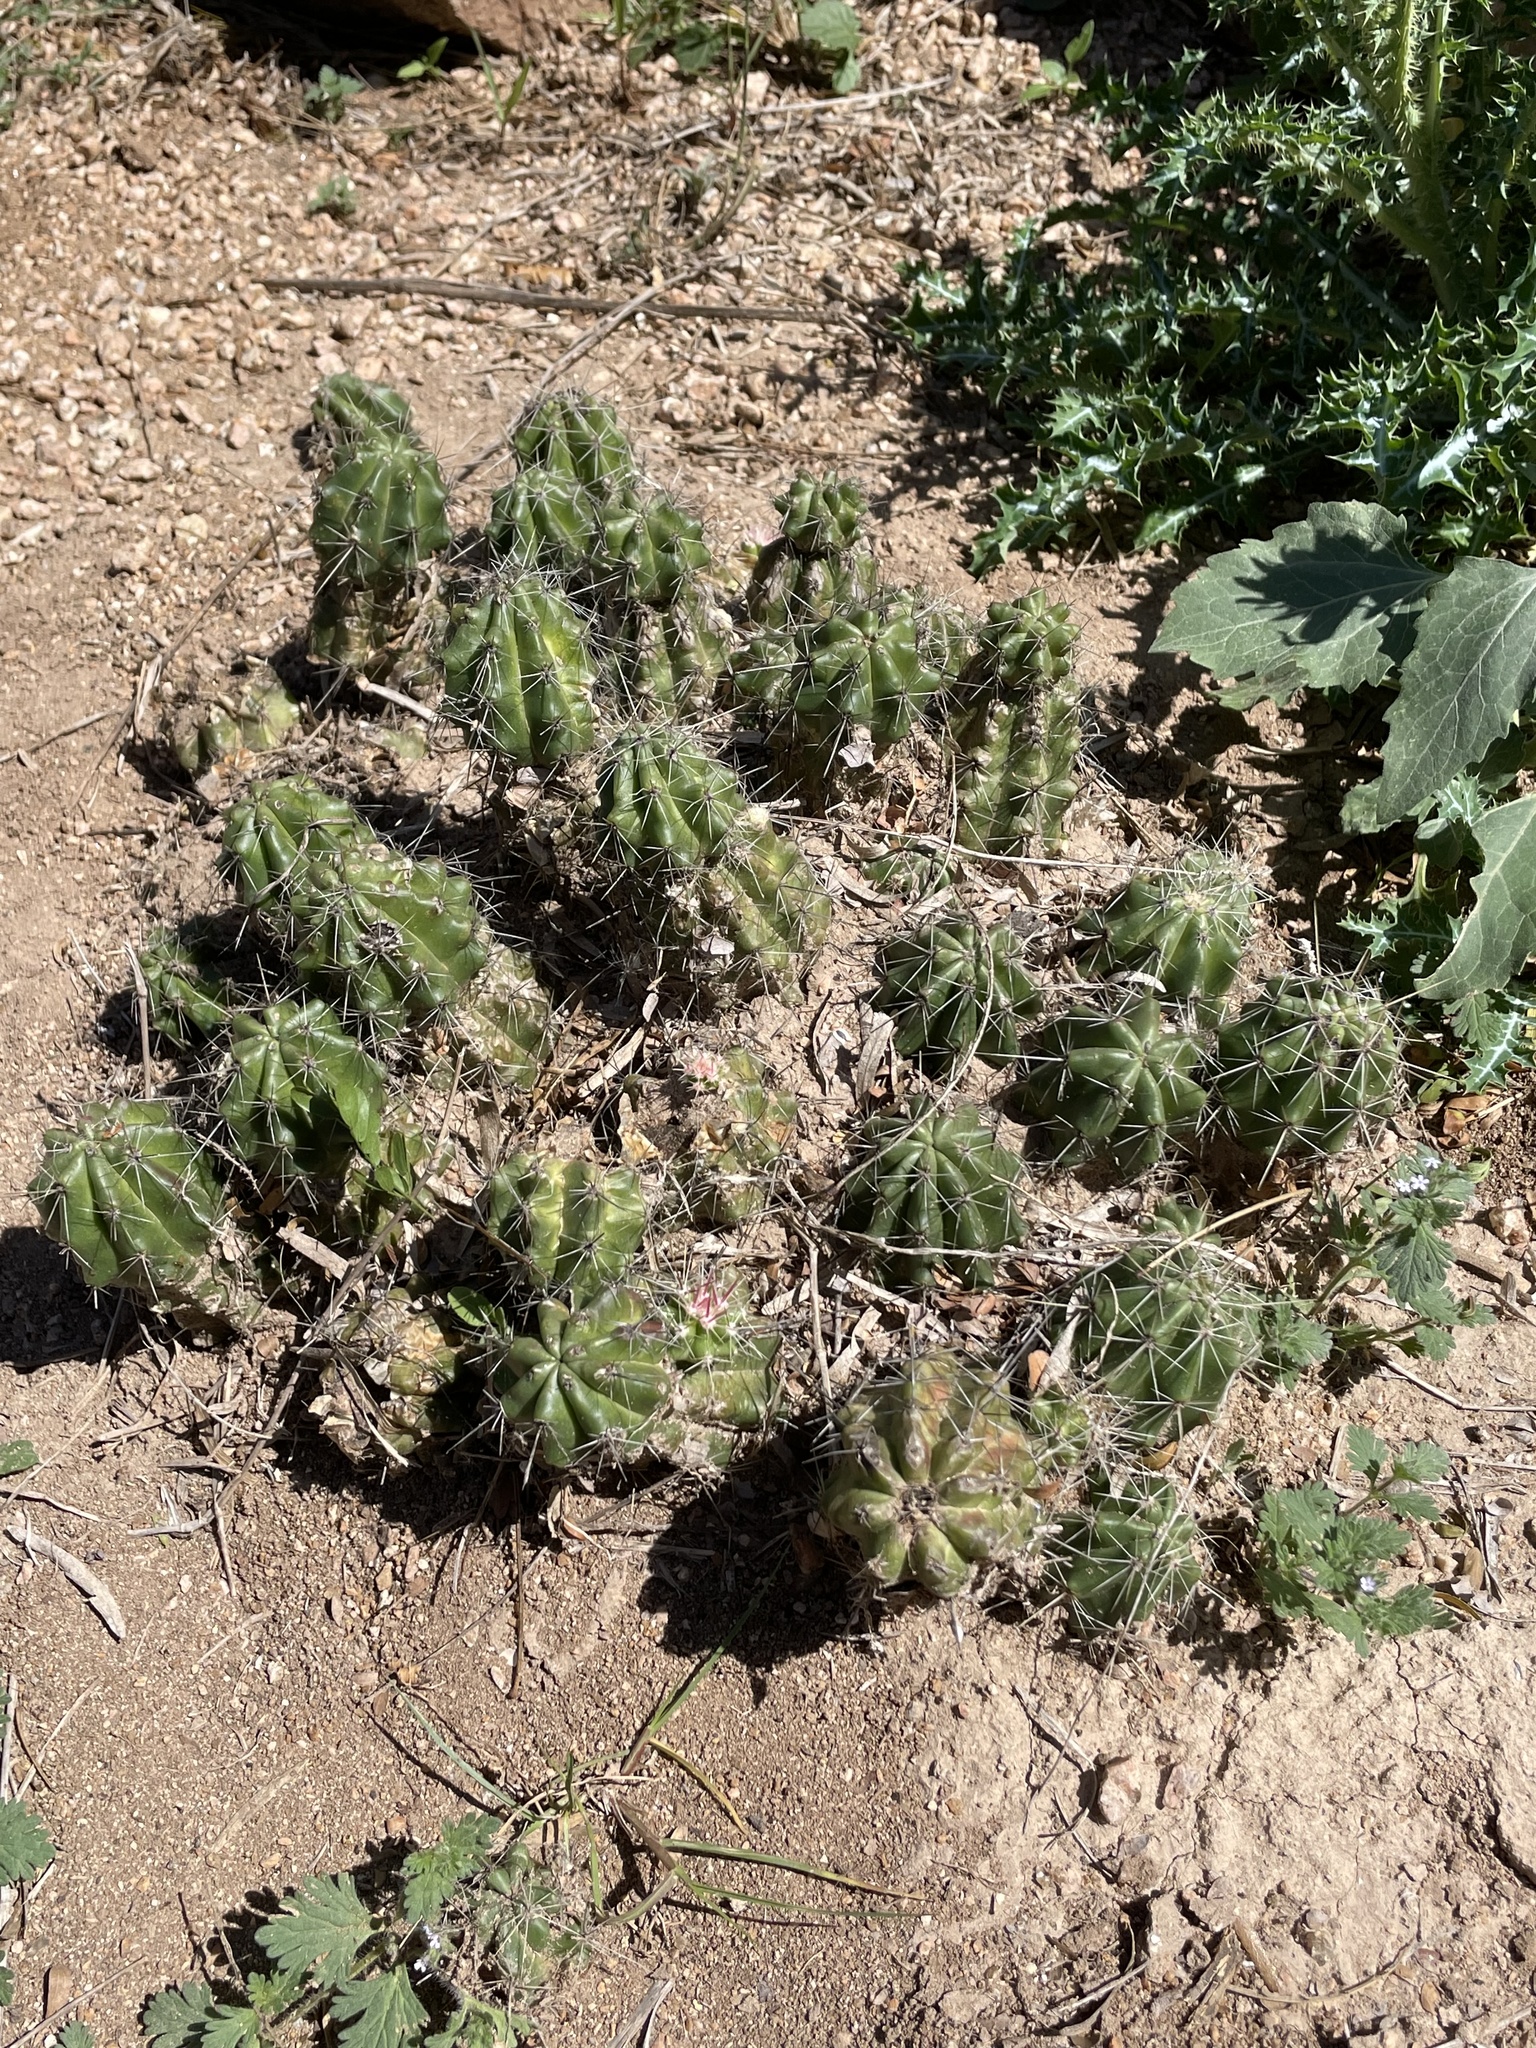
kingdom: Plantae
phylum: Tracheophyta
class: Magnoliopsida
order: Caryophyllales
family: Cactaceae
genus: Echinocereus
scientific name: Echinocereus enneacanthus
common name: Pitaya
